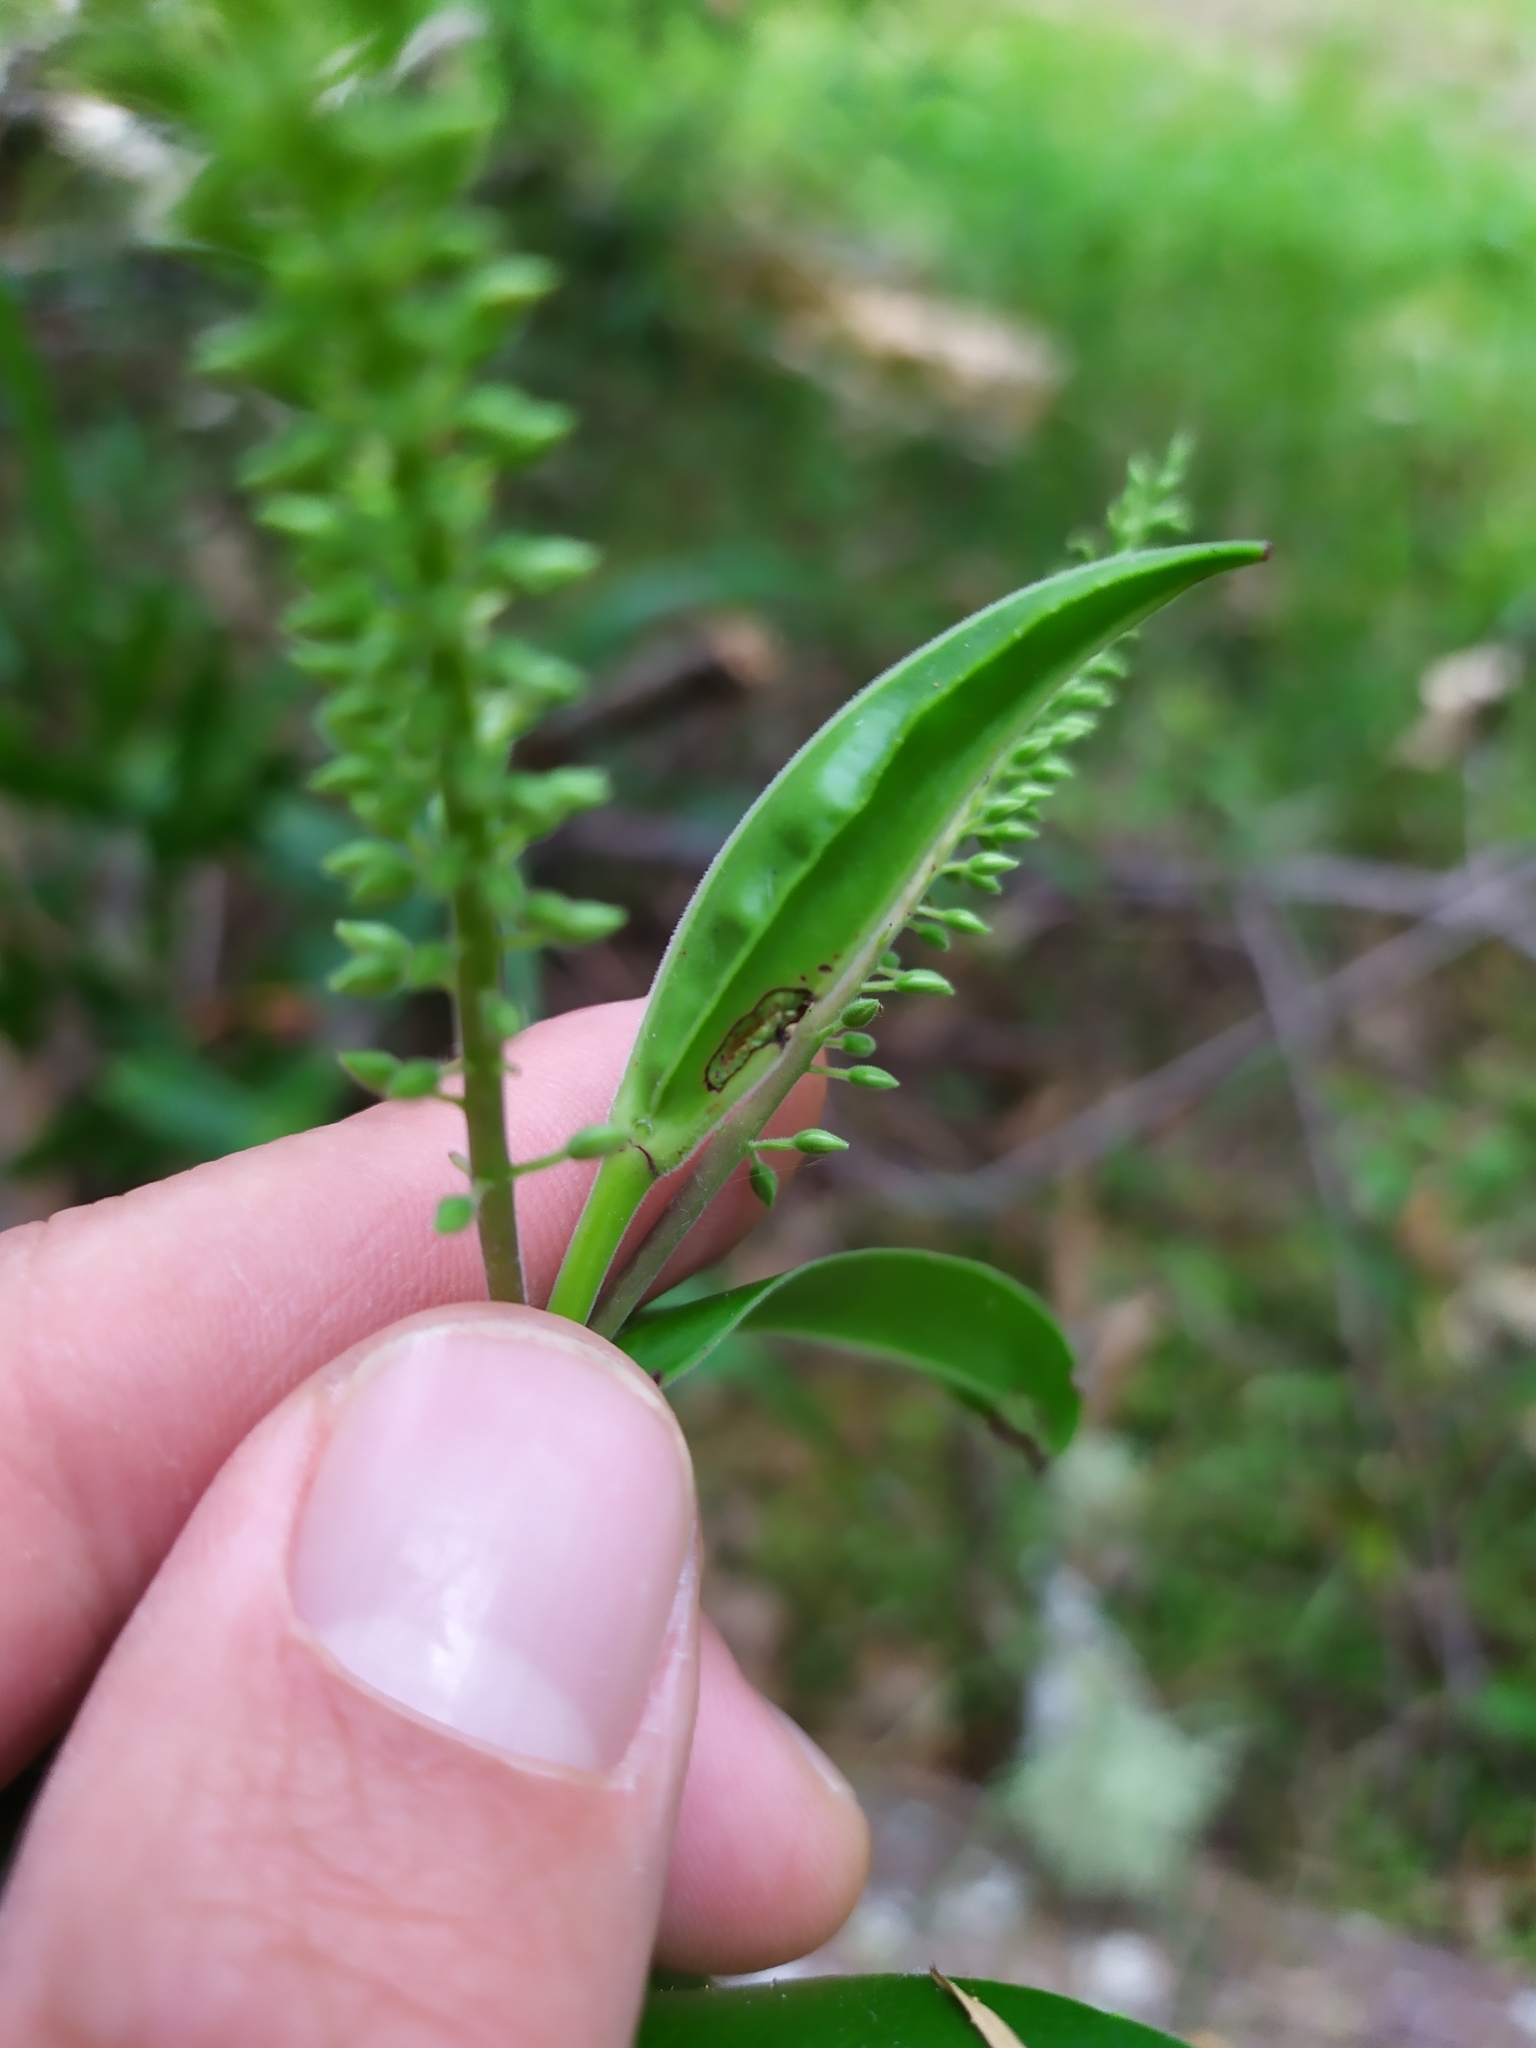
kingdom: Plantae
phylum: Tracheophyta
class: Magnoliopsida
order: Lamiales
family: Plantaginaceae
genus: Veronica
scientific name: Veronica pubescens
